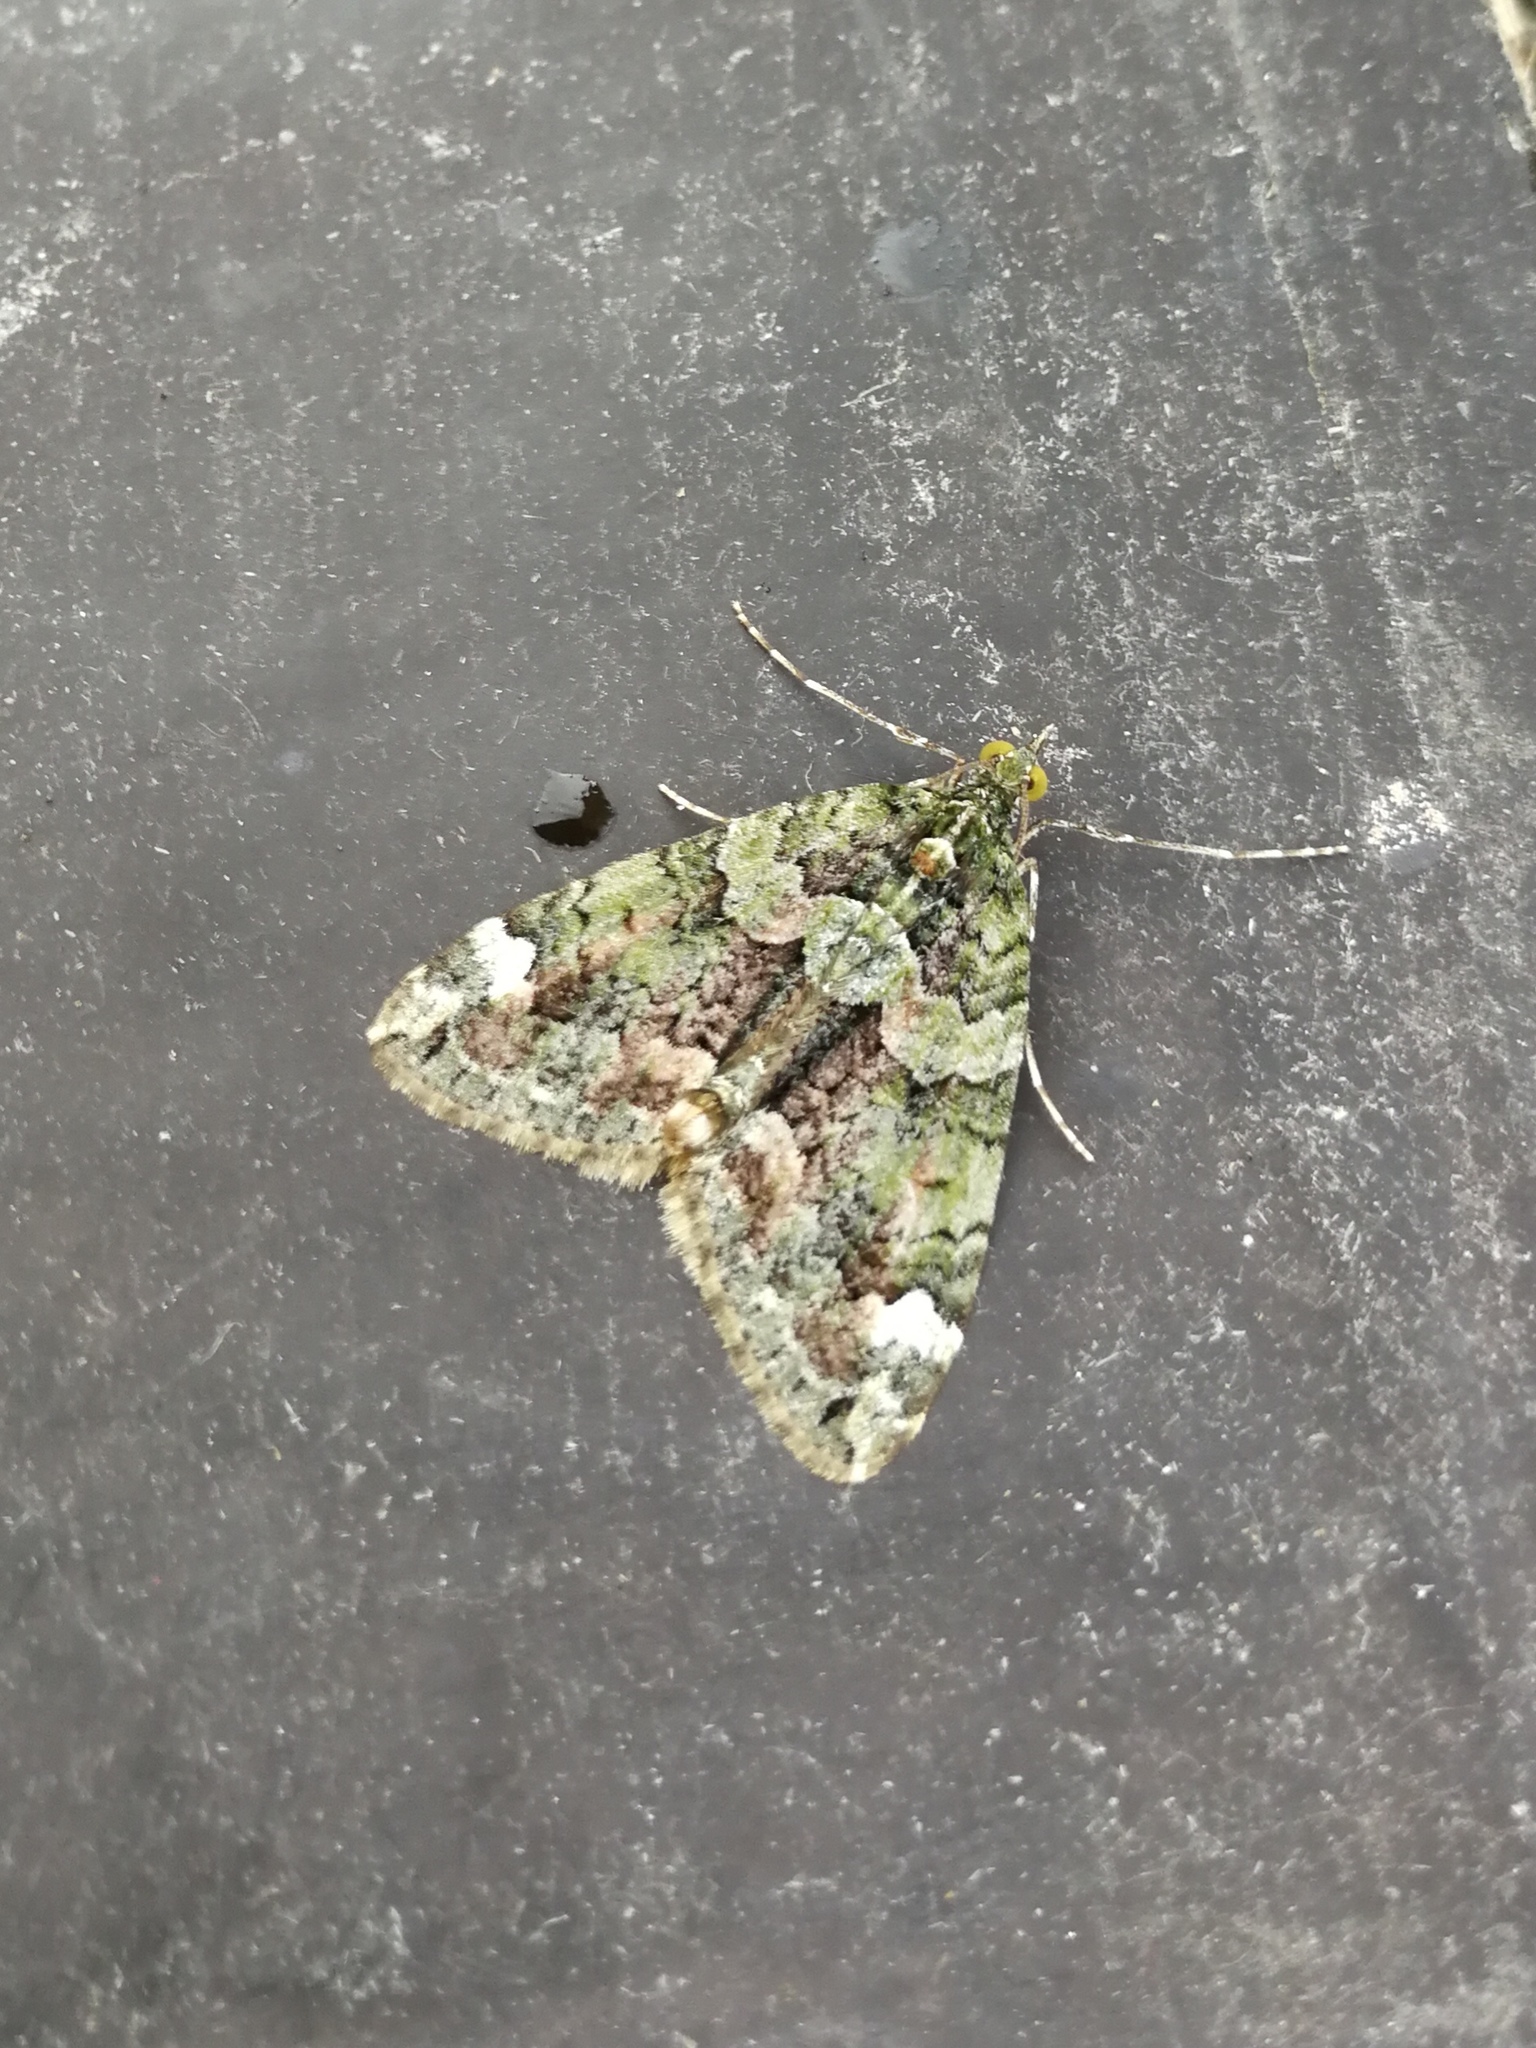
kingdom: Animalia
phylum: Arthropoda
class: Insecta
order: Lepidoptera
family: Geometridae
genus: Chloroclysta
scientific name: Chloroclysta siterata
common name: Red-green carpet
